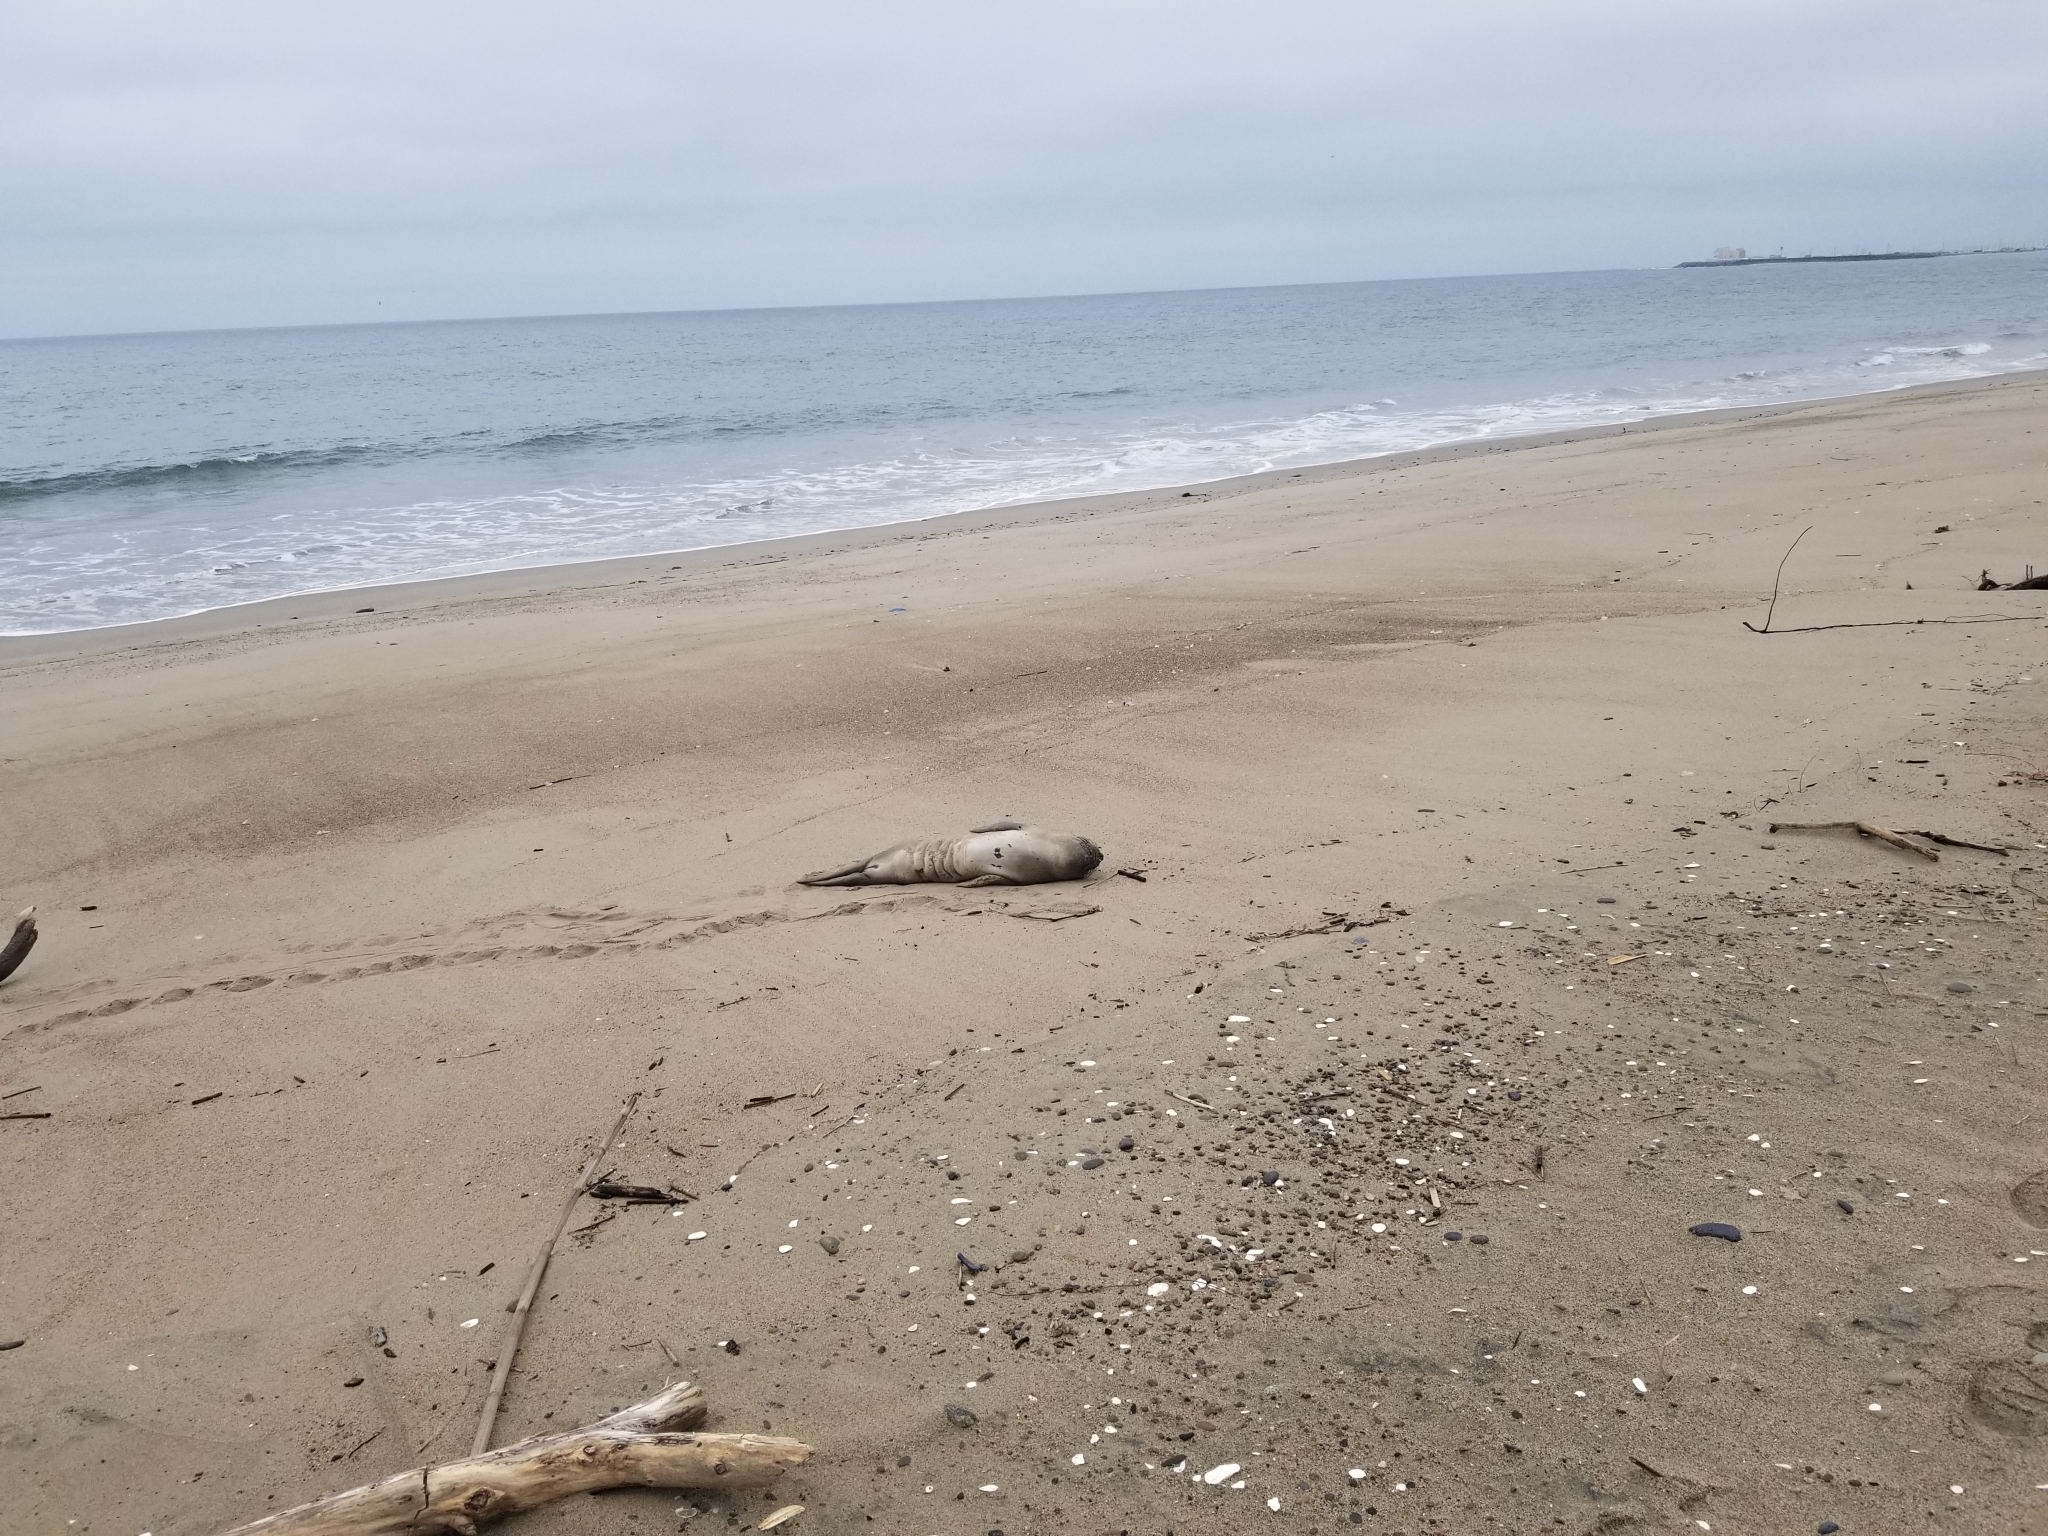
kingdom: Animalia
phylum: Chordata
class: Mammalia
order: Carnivora
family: Phocidae
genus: Mirounga
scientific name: Mirounga angustirostris
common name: Northern elephant seal
